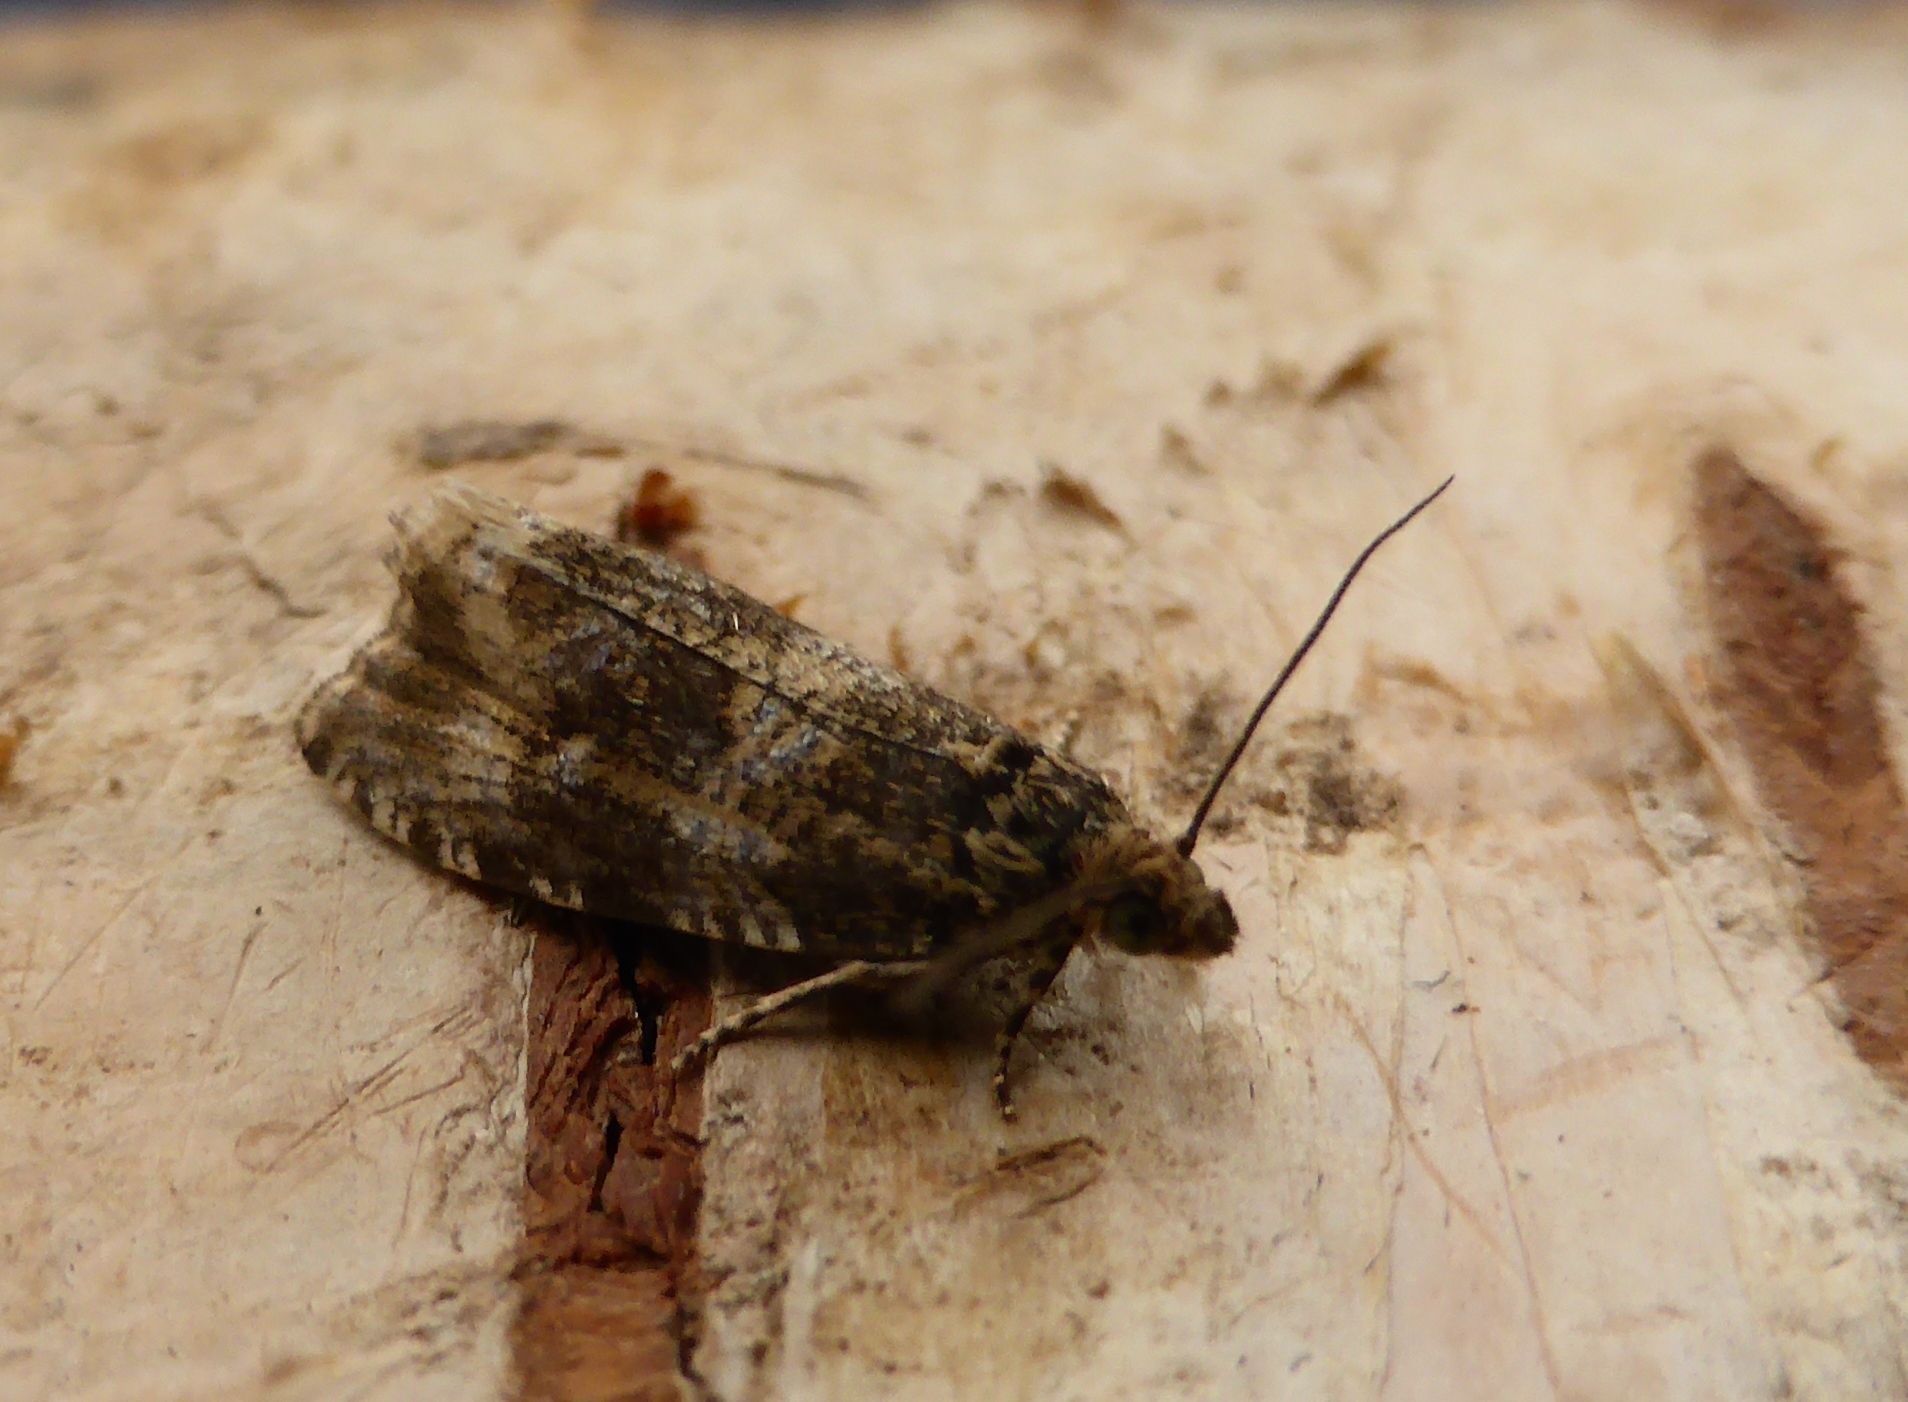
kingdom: Animalia
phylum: Arthropoda
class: Insecta
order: Lepidoptera
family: Tortricidae
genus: Syricoris
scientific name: Syricoris lacunana
